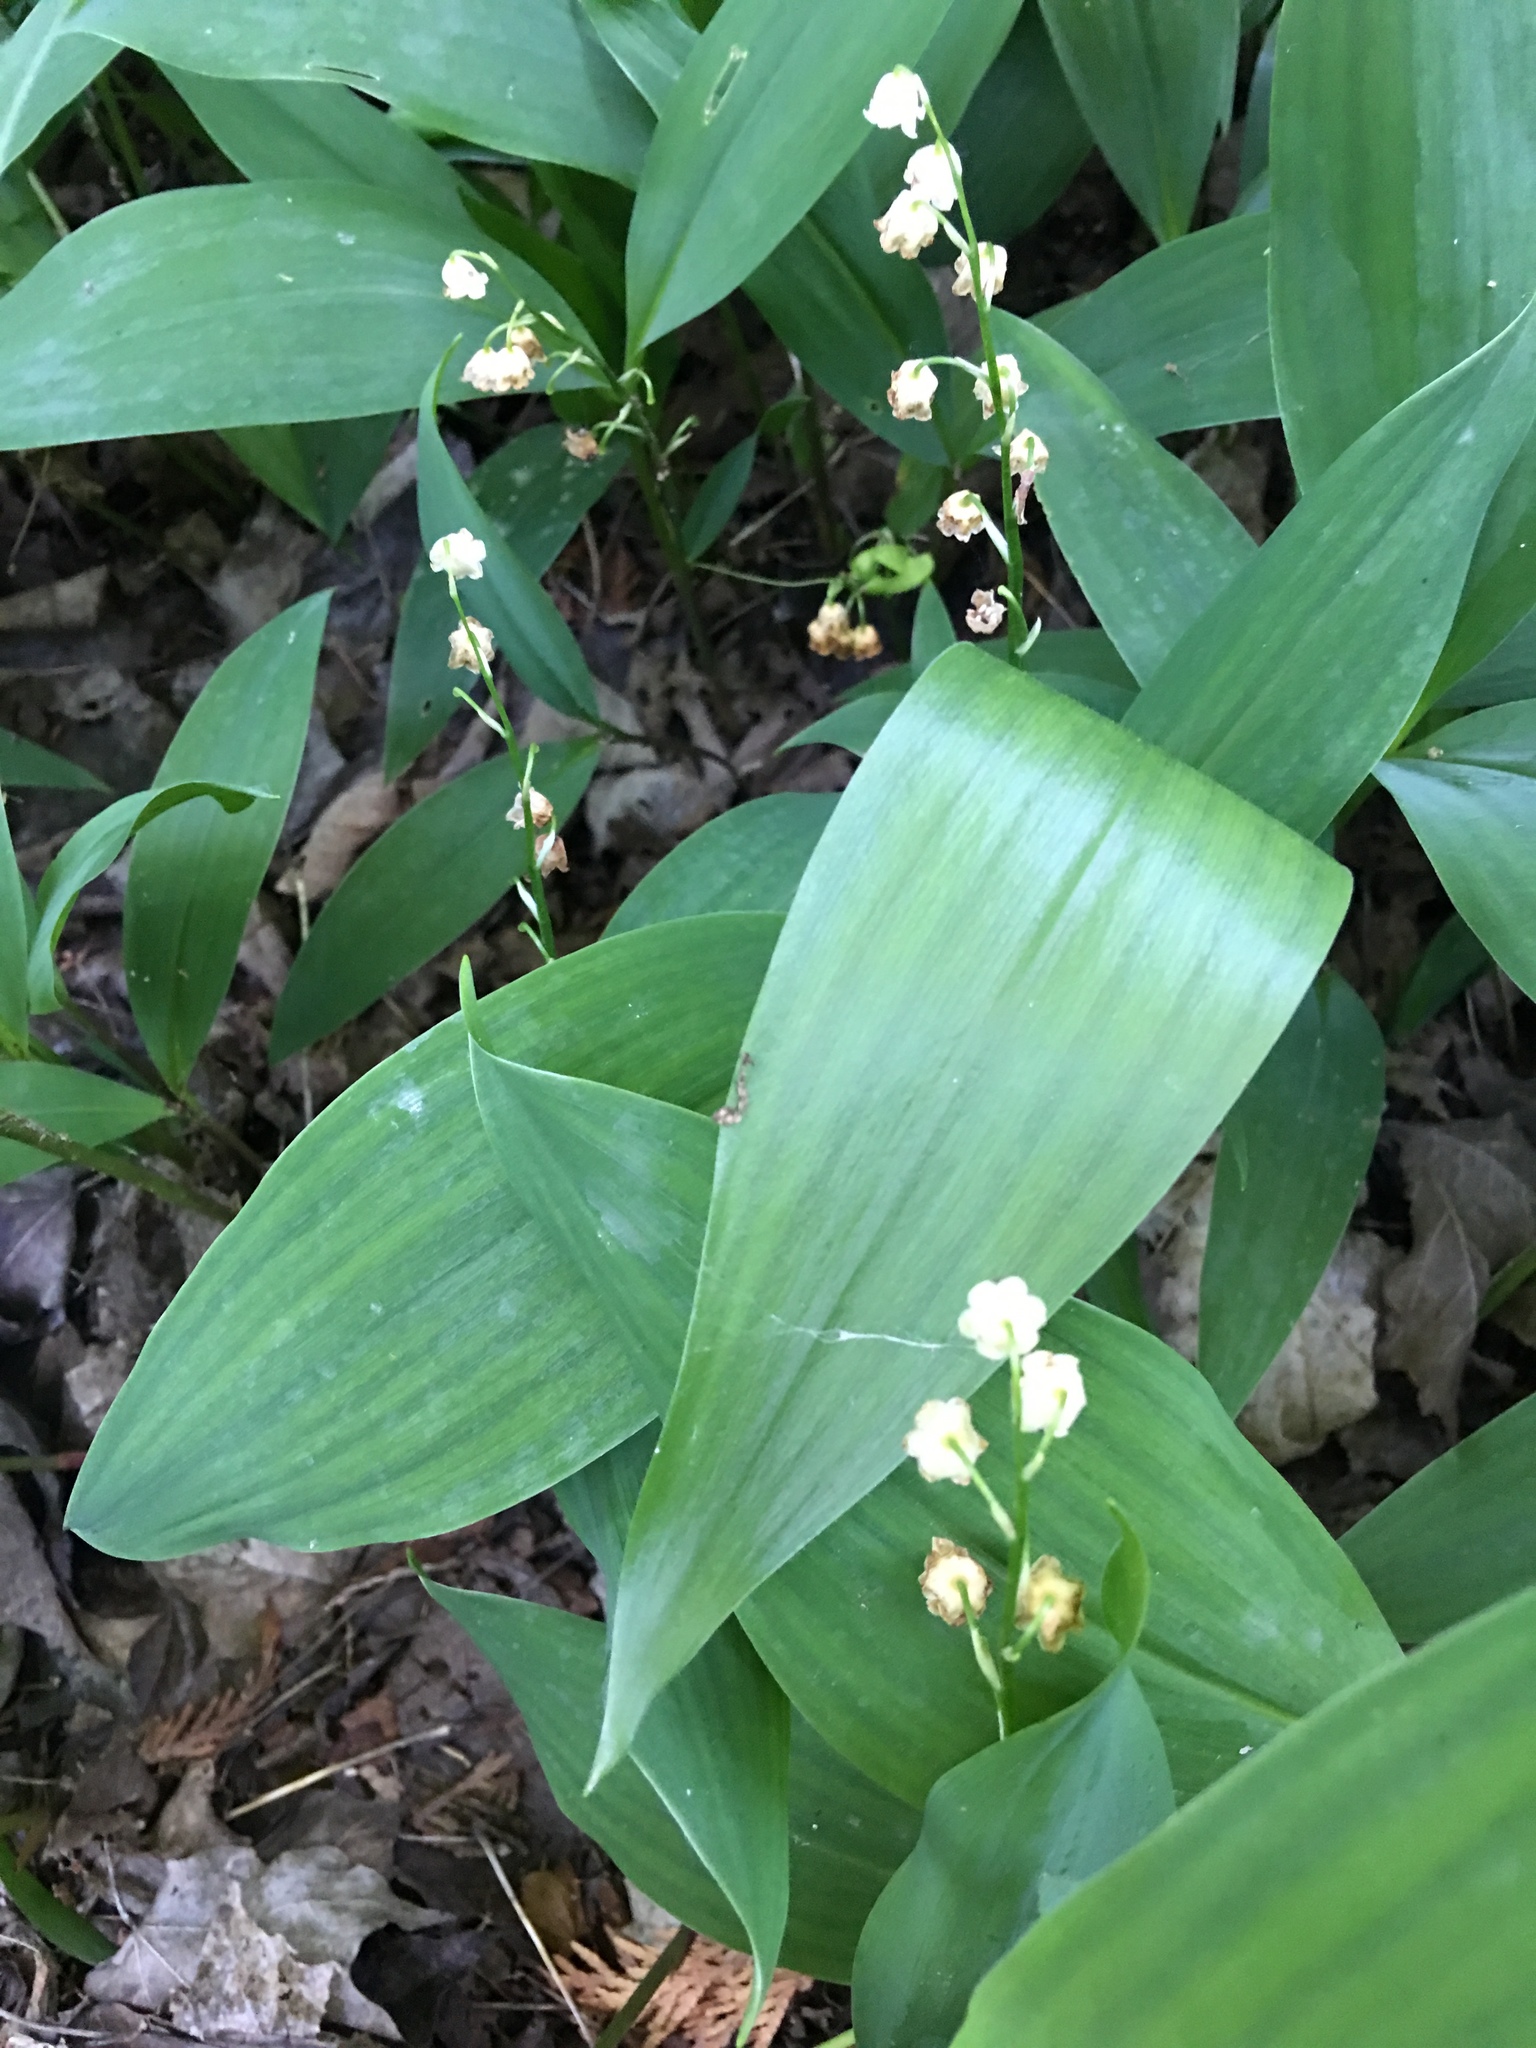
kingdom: Plantae
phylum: Tracheophyta
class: Liliopsida
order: Asparagales
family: Asparagaceae
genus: Convallaria
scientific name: Convallaria majalis
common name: Lily-of-the-valley
